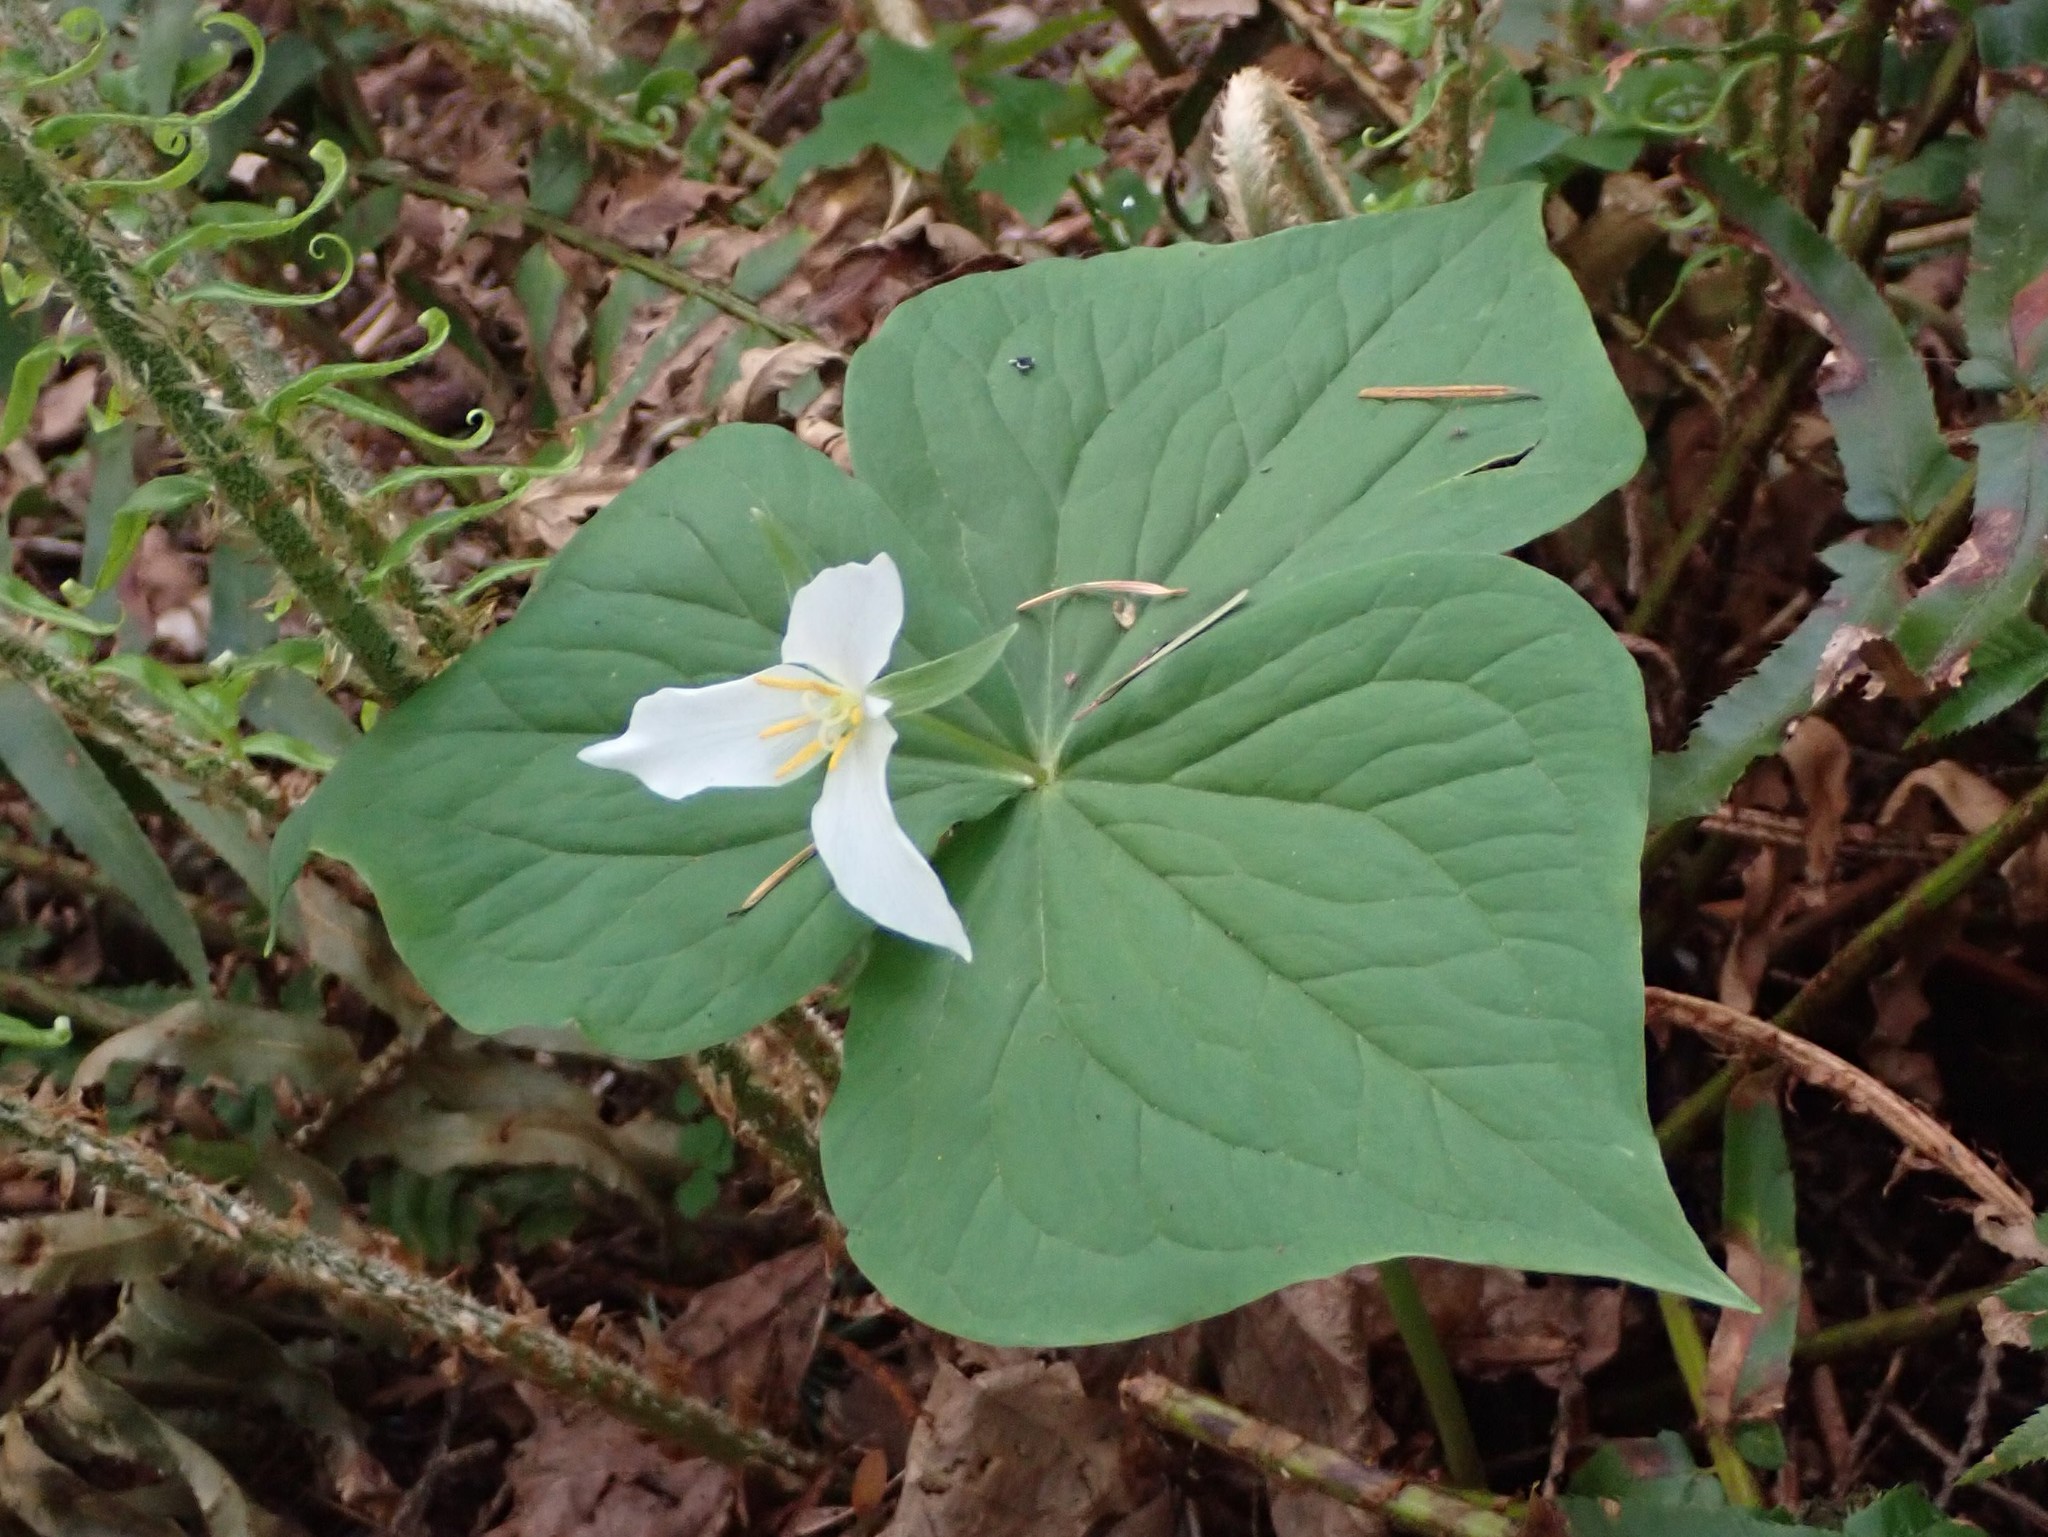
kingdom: Plantae
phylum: Tracheophyta
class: Liliopsida
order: Liliales
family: Melanthiaceae
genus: Trillium
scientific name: Trillium ovatum
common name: Pacific trillium
